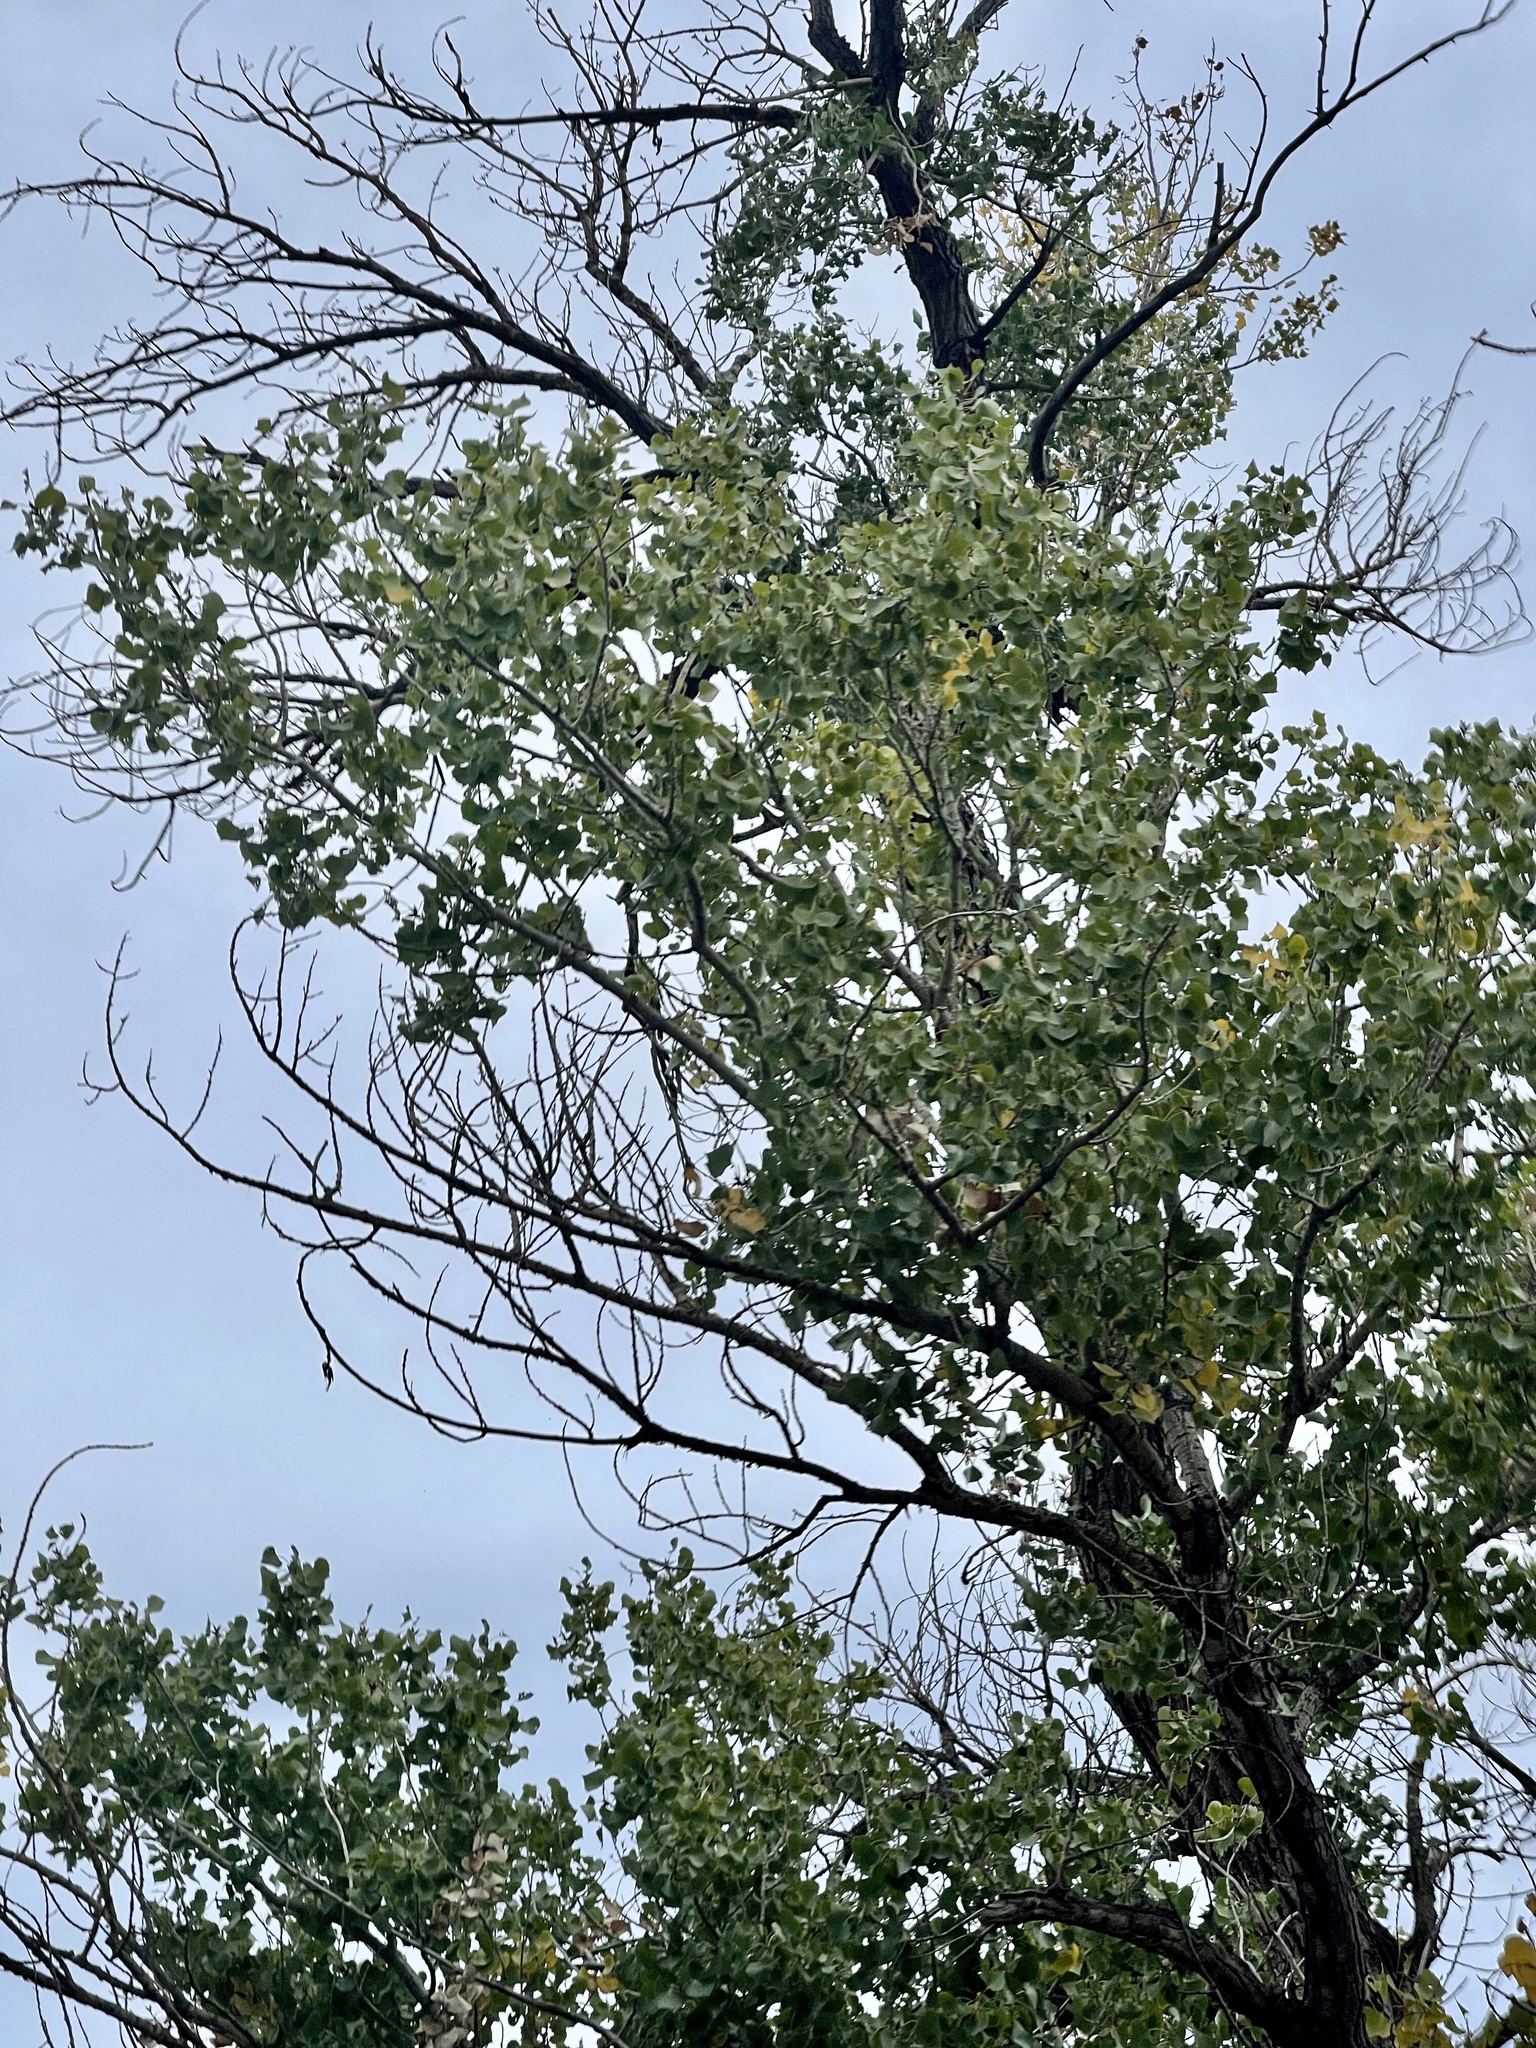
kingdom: Plantae
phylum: Tracheophyta
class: Magnoliopsida
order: Malpighiales
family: Salicaceae
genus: Populus
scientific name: Populus fremontii
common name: Fremont's cottonwood
